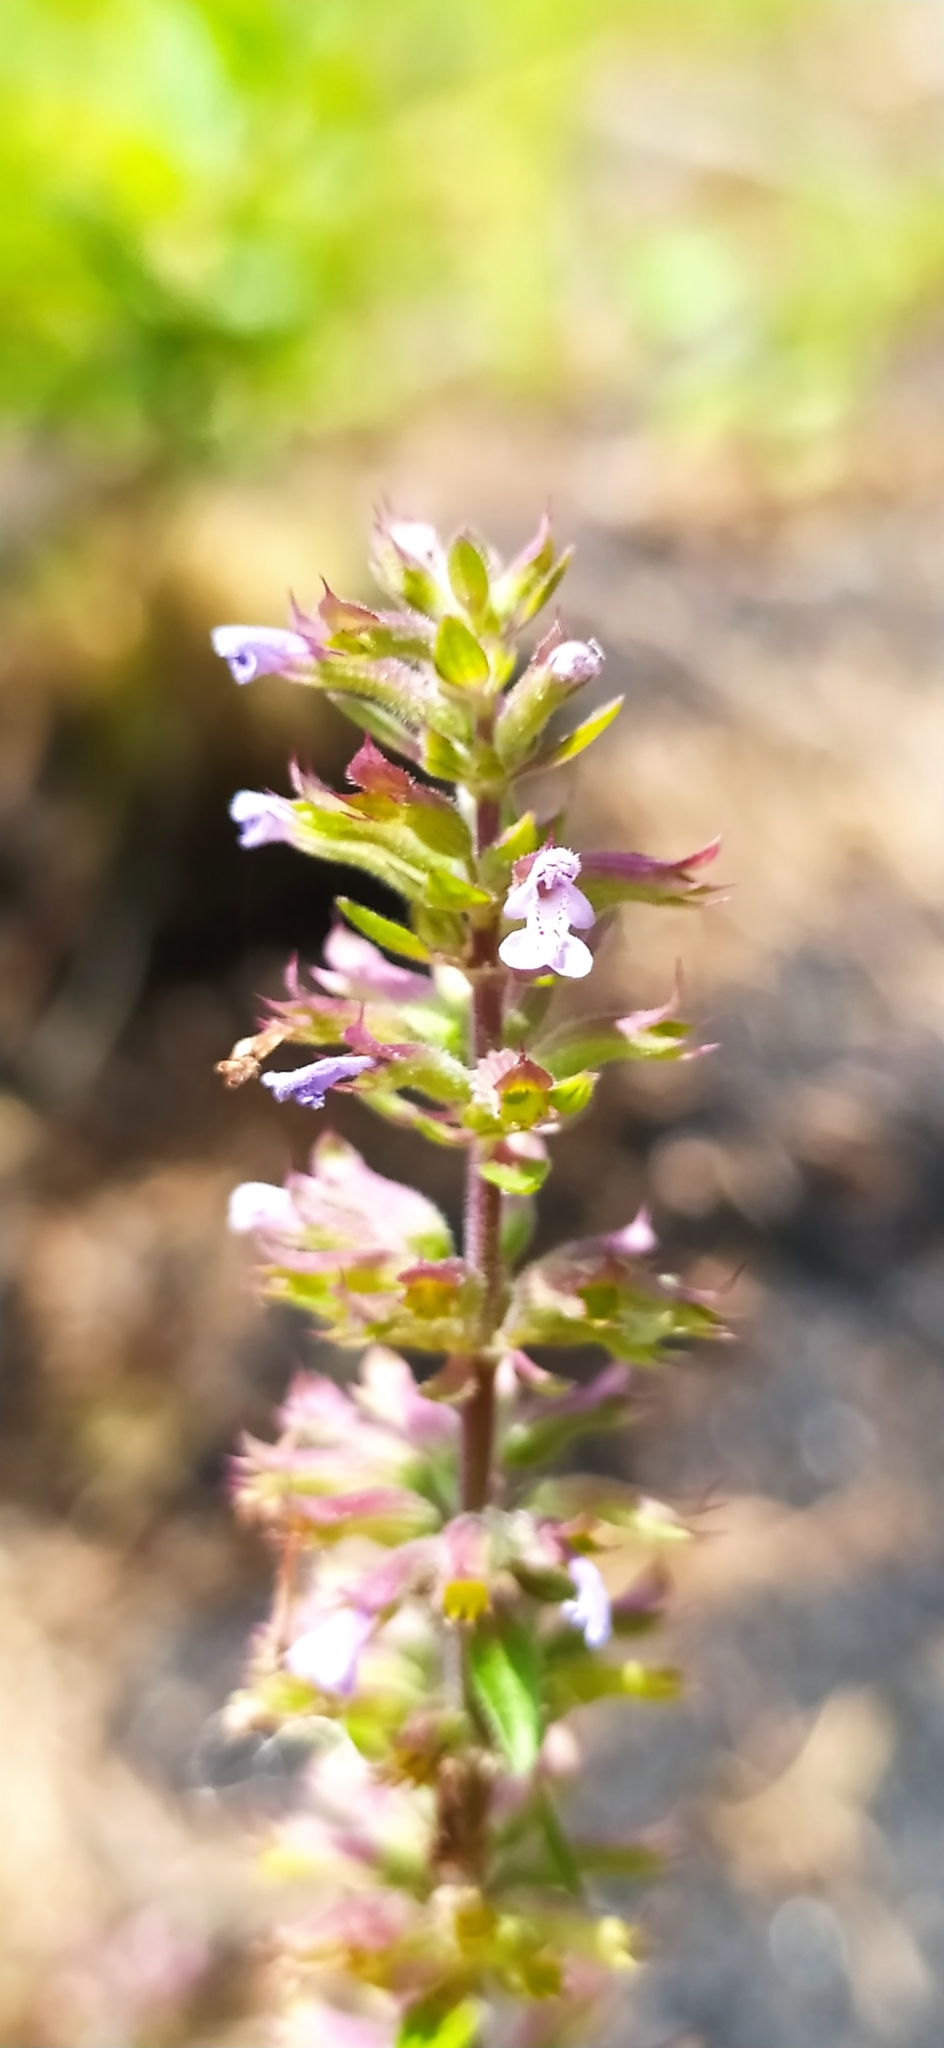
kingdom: Plantae
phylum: Tracheophyta
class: Magnoliopsida
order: Lamiales
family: Lamiaceae
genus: Dracocephalum
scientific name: Dracocephalum thymiflorum
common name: Thymeleaf dragonhead
